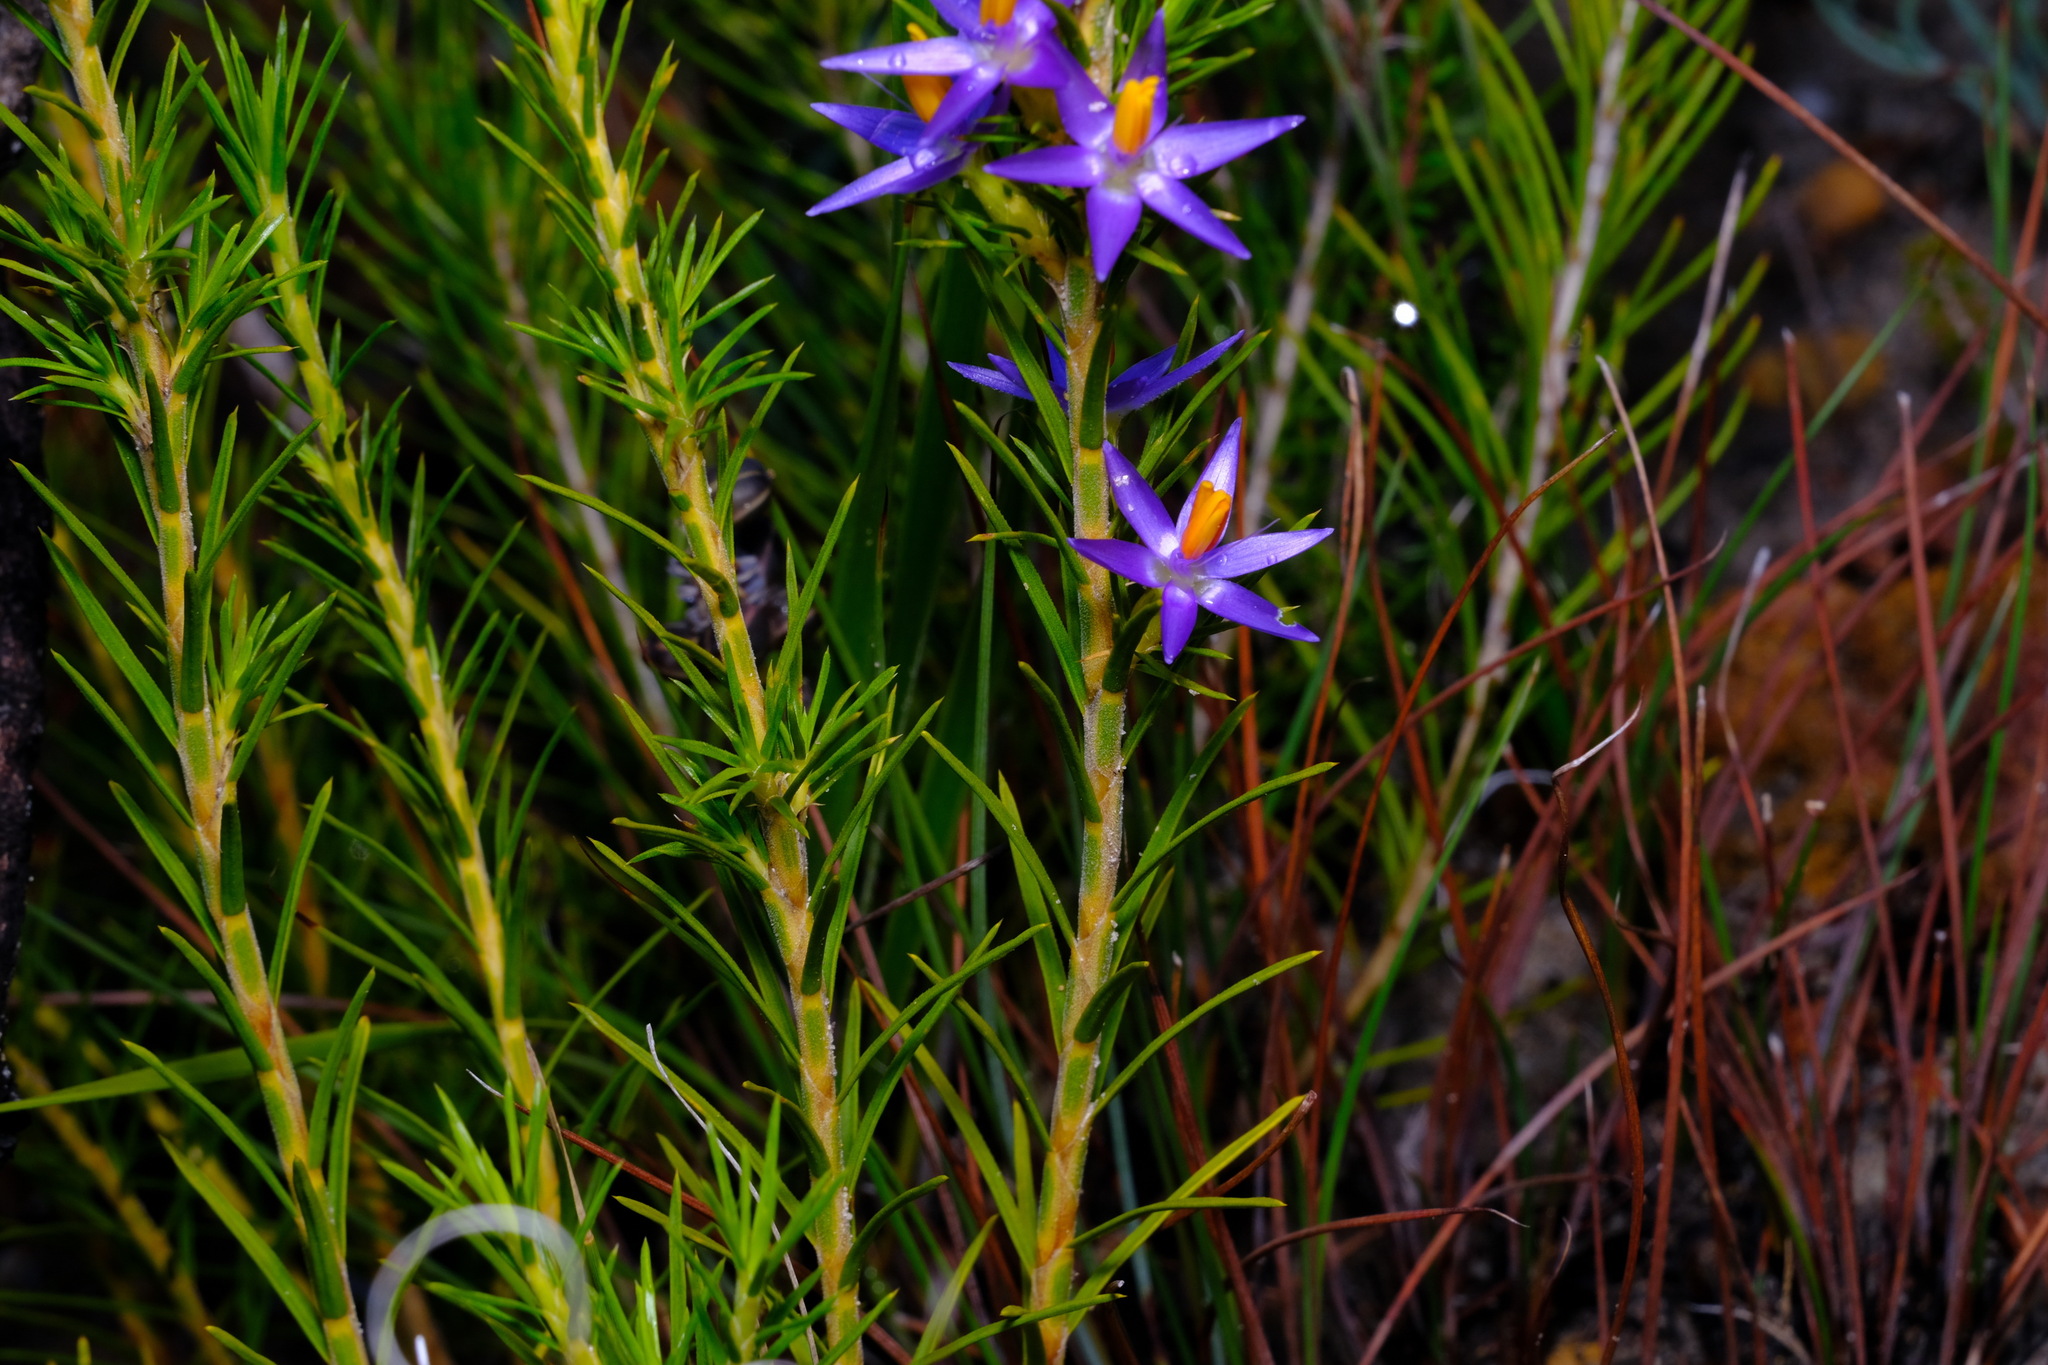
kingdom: Plantae
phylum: Tracheophyta
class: Liliopsida
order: Arecales
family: Dasypogonaceae
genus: Calectasia
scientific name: Calectasia narragara
